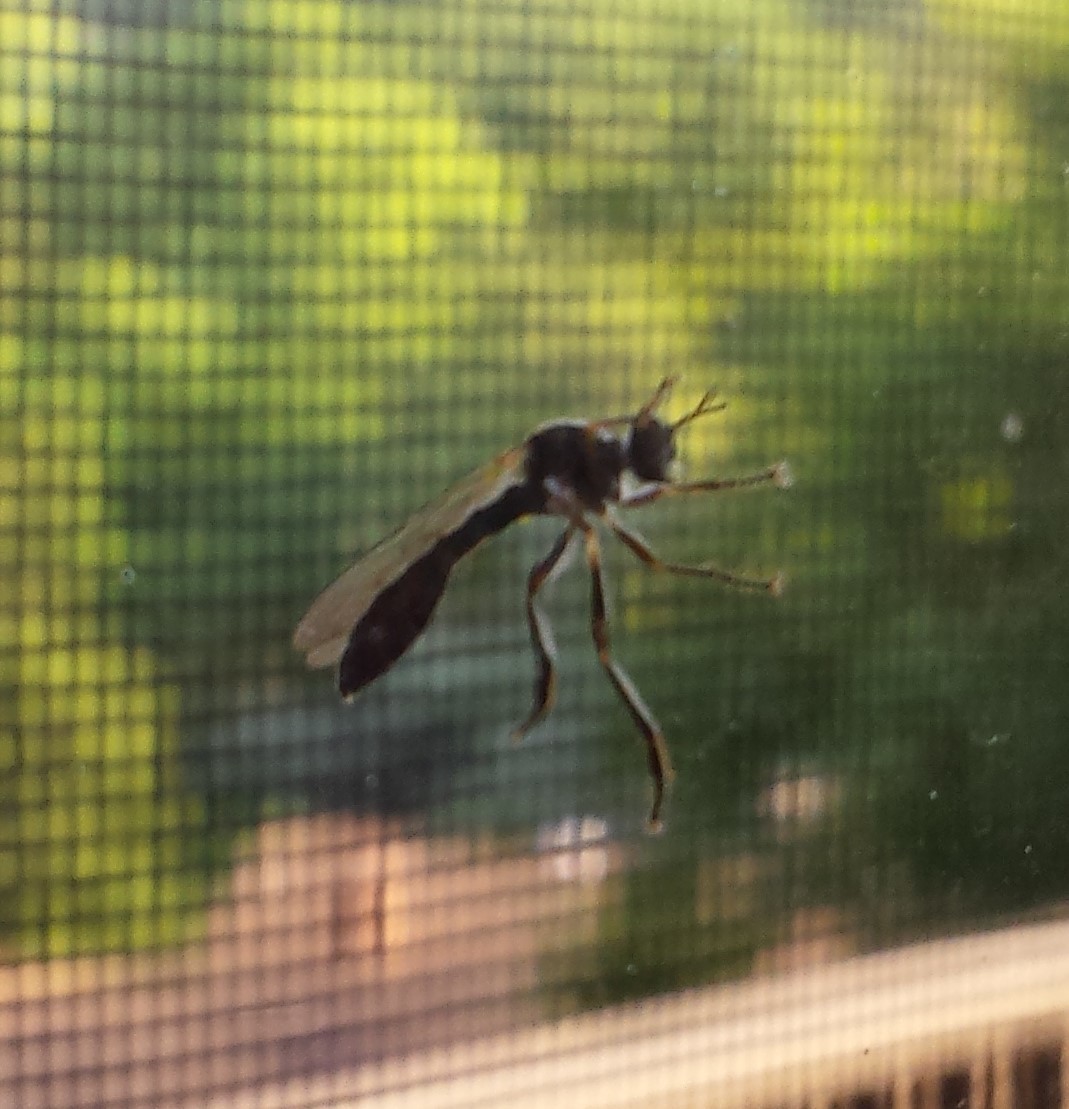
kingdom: Animalia
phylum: Arthropoda
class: Insecta
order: Diptera
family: Asilidae
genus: Dioctria
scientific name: Dioctria hyalipennis
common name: Stripe-legged robberfly
